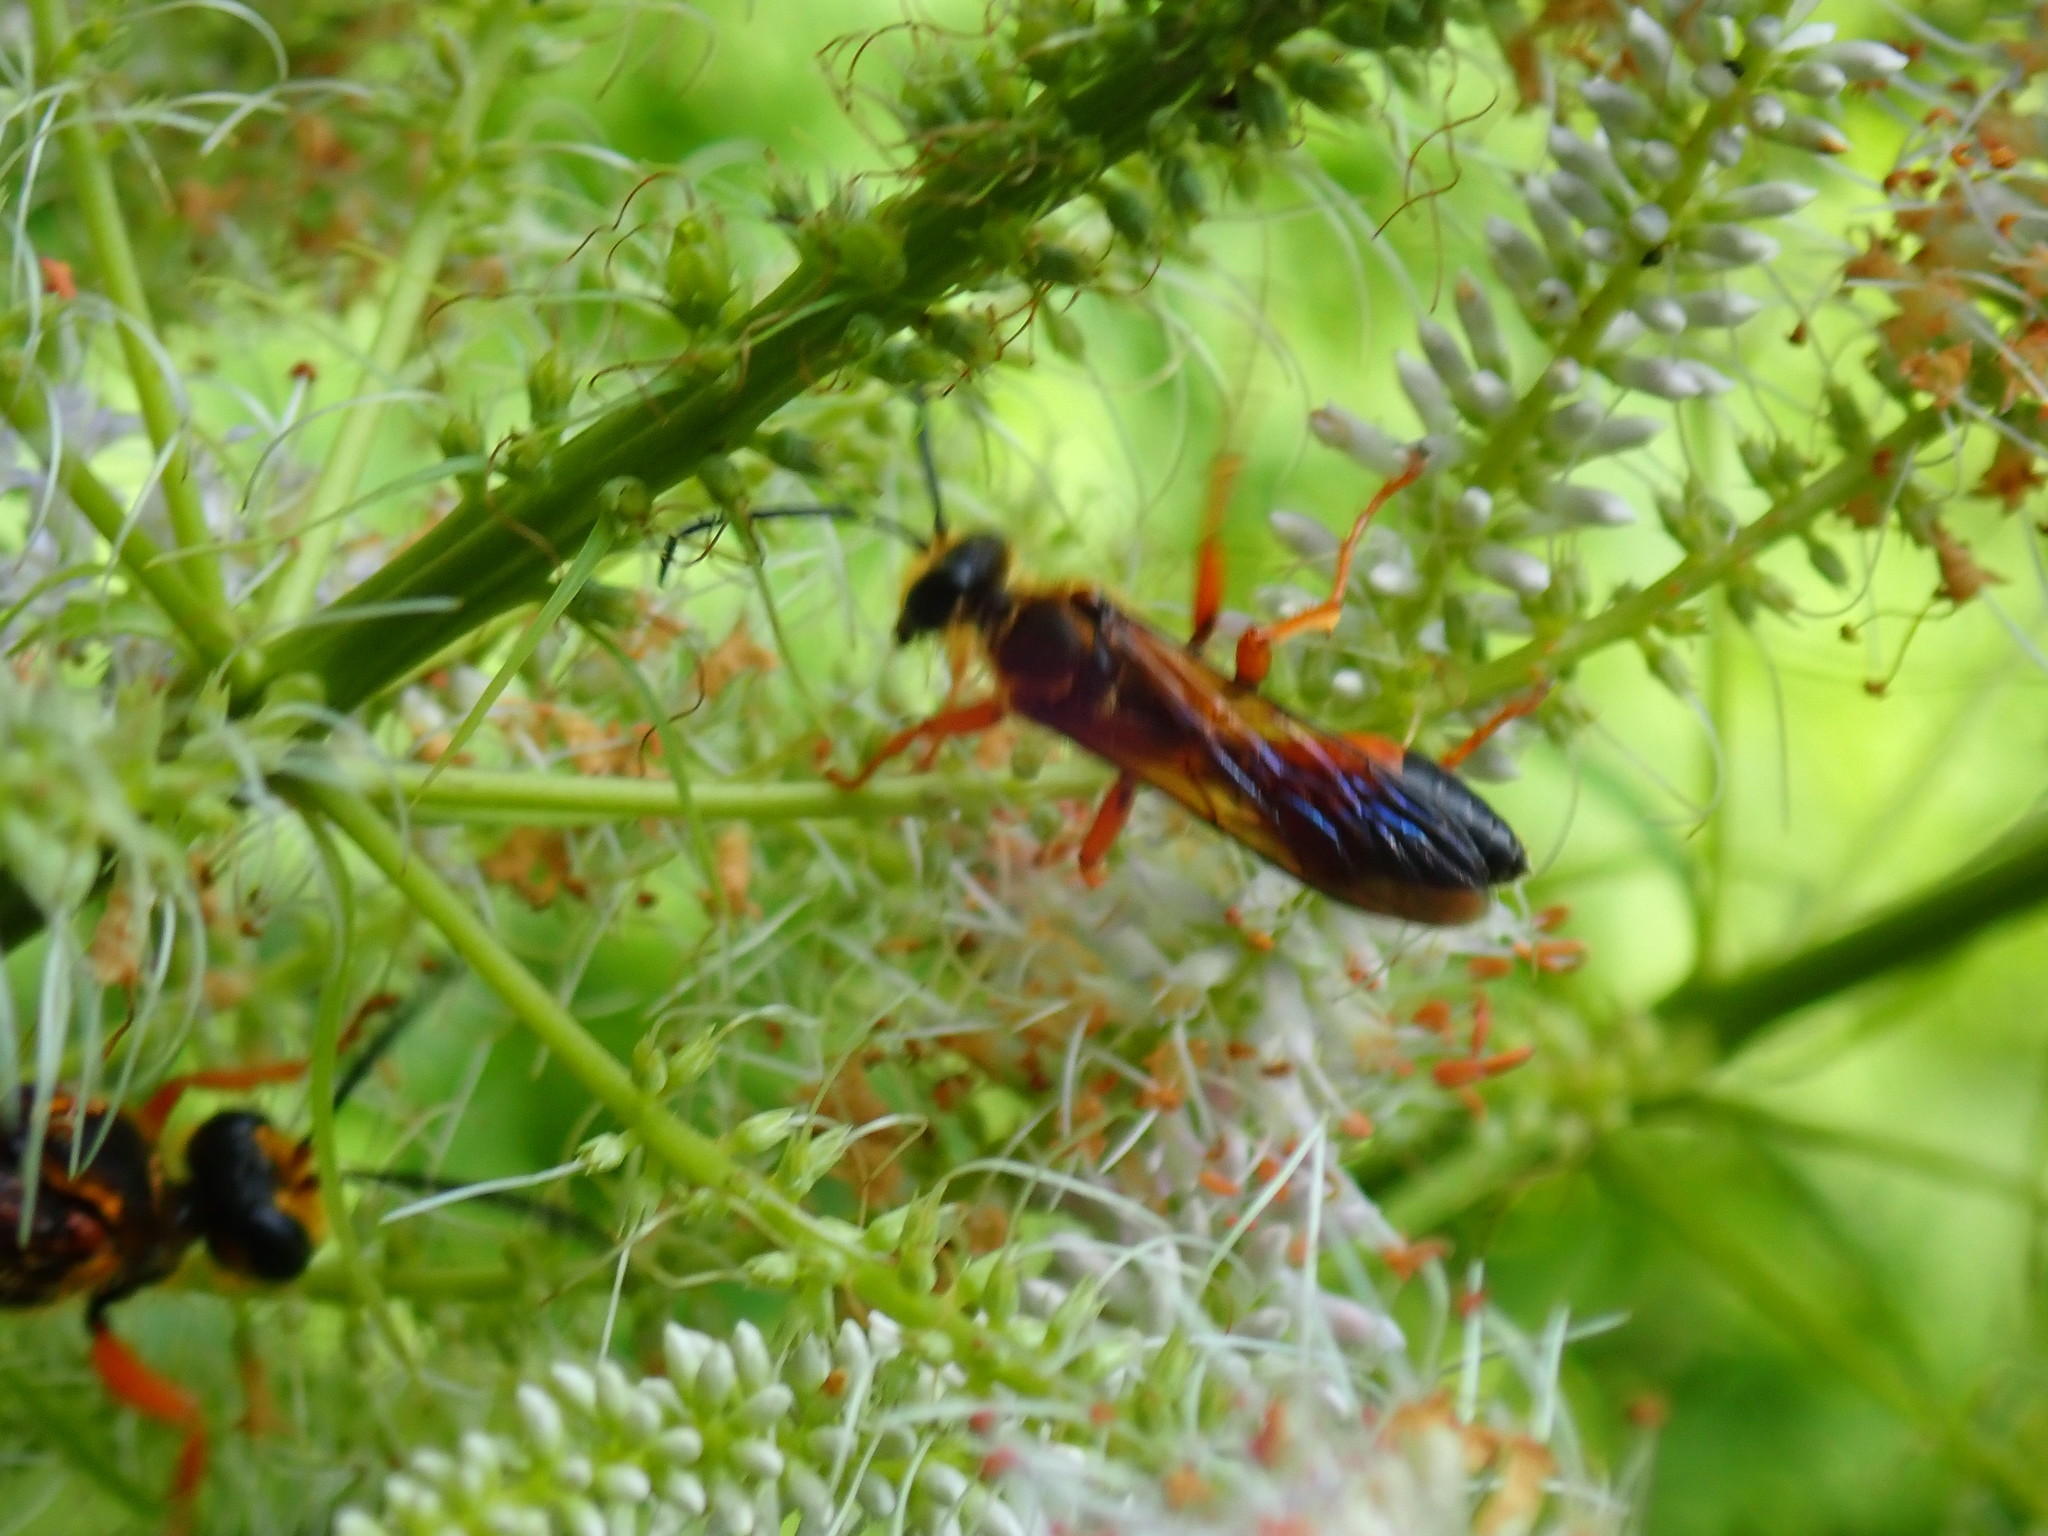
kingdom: Animalia
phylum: Arthropoda
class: Insecta
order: Hymenoptera
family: Sphecidae
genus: Sphex
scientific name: Sphex ichneumoneus
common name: Great golden digger wasp
